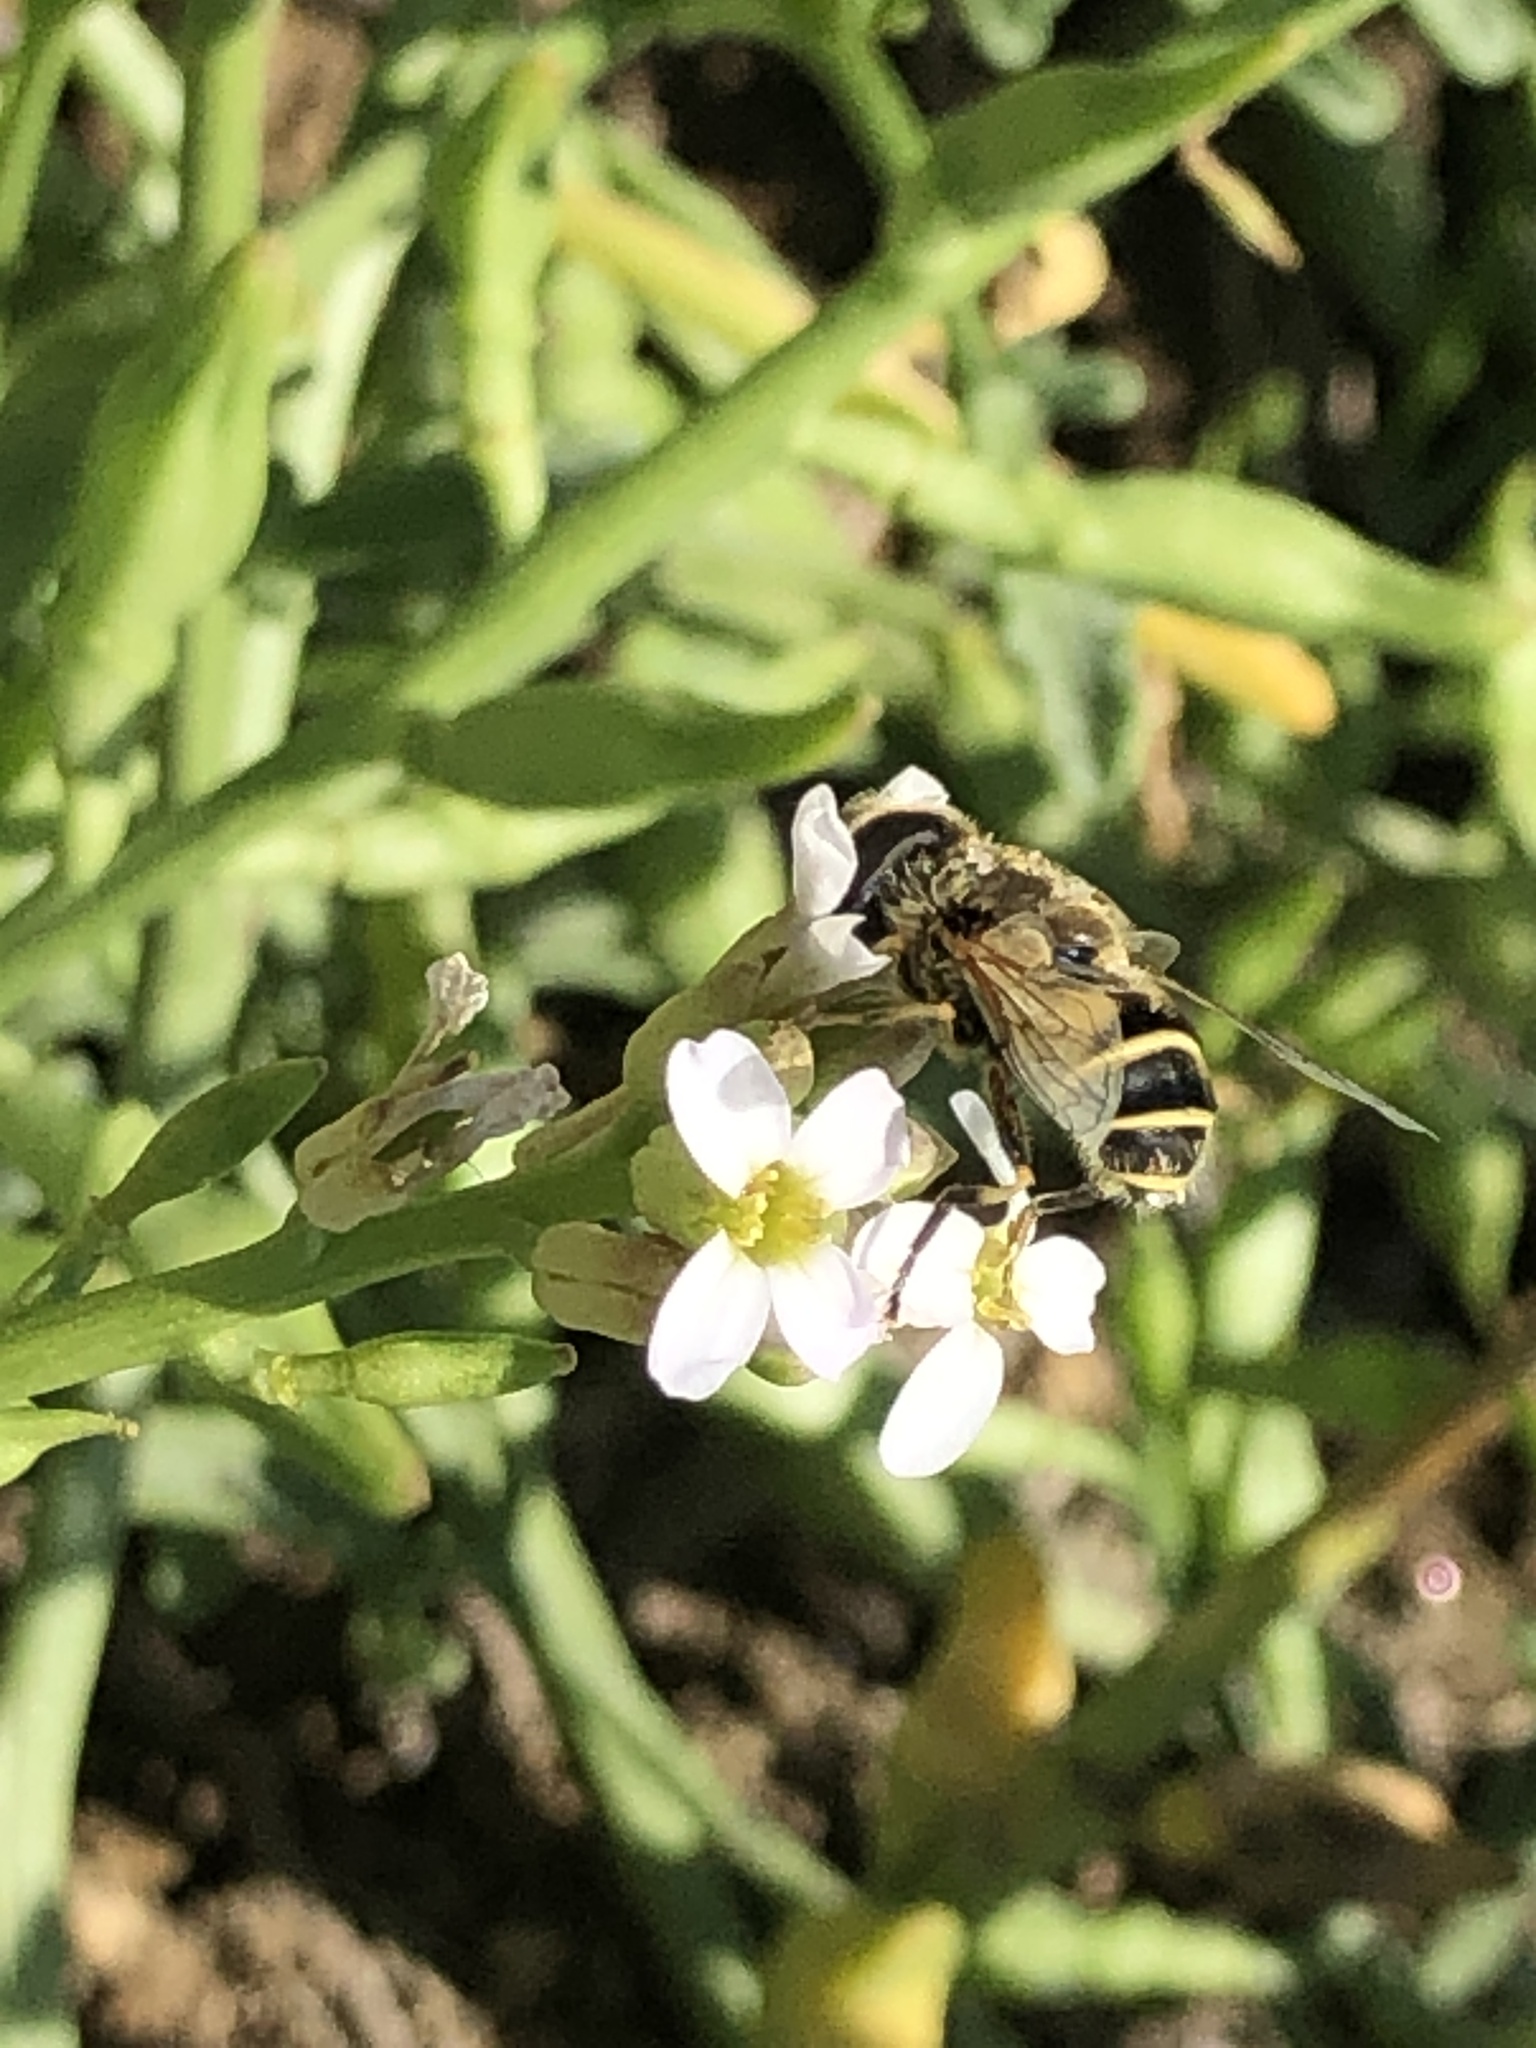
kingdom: Animalia
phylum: Arthropoda
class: Insecta
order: Diptera
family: Syrphidae
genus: Eristalis
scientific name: Eristalis hirta
